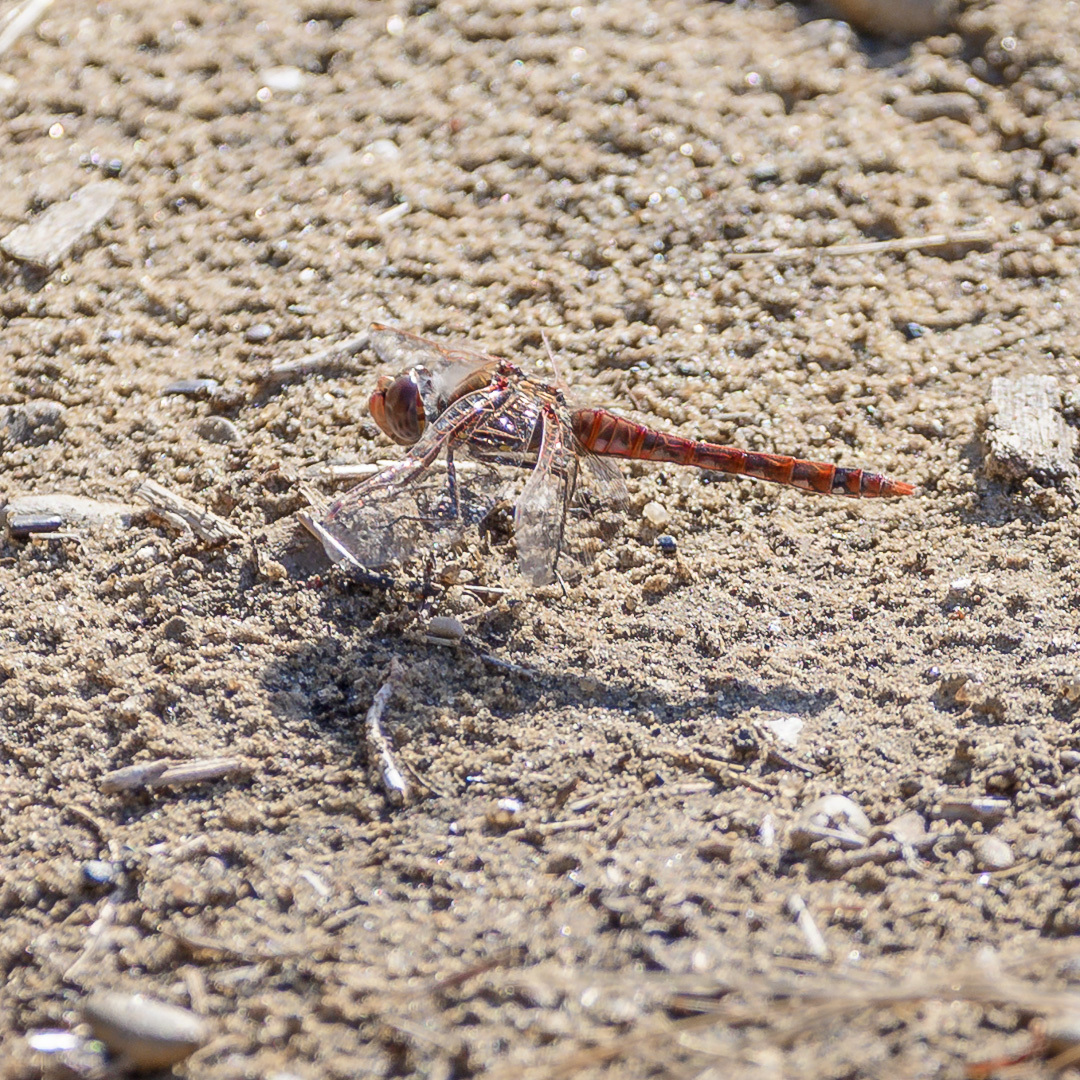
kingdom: Animalia
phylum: Arthropoda
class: Insecta
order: Odonata
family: Libellulidae
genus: Sympetrum
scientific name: Sympetrum corruptum
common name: Variegated meadowhawk
